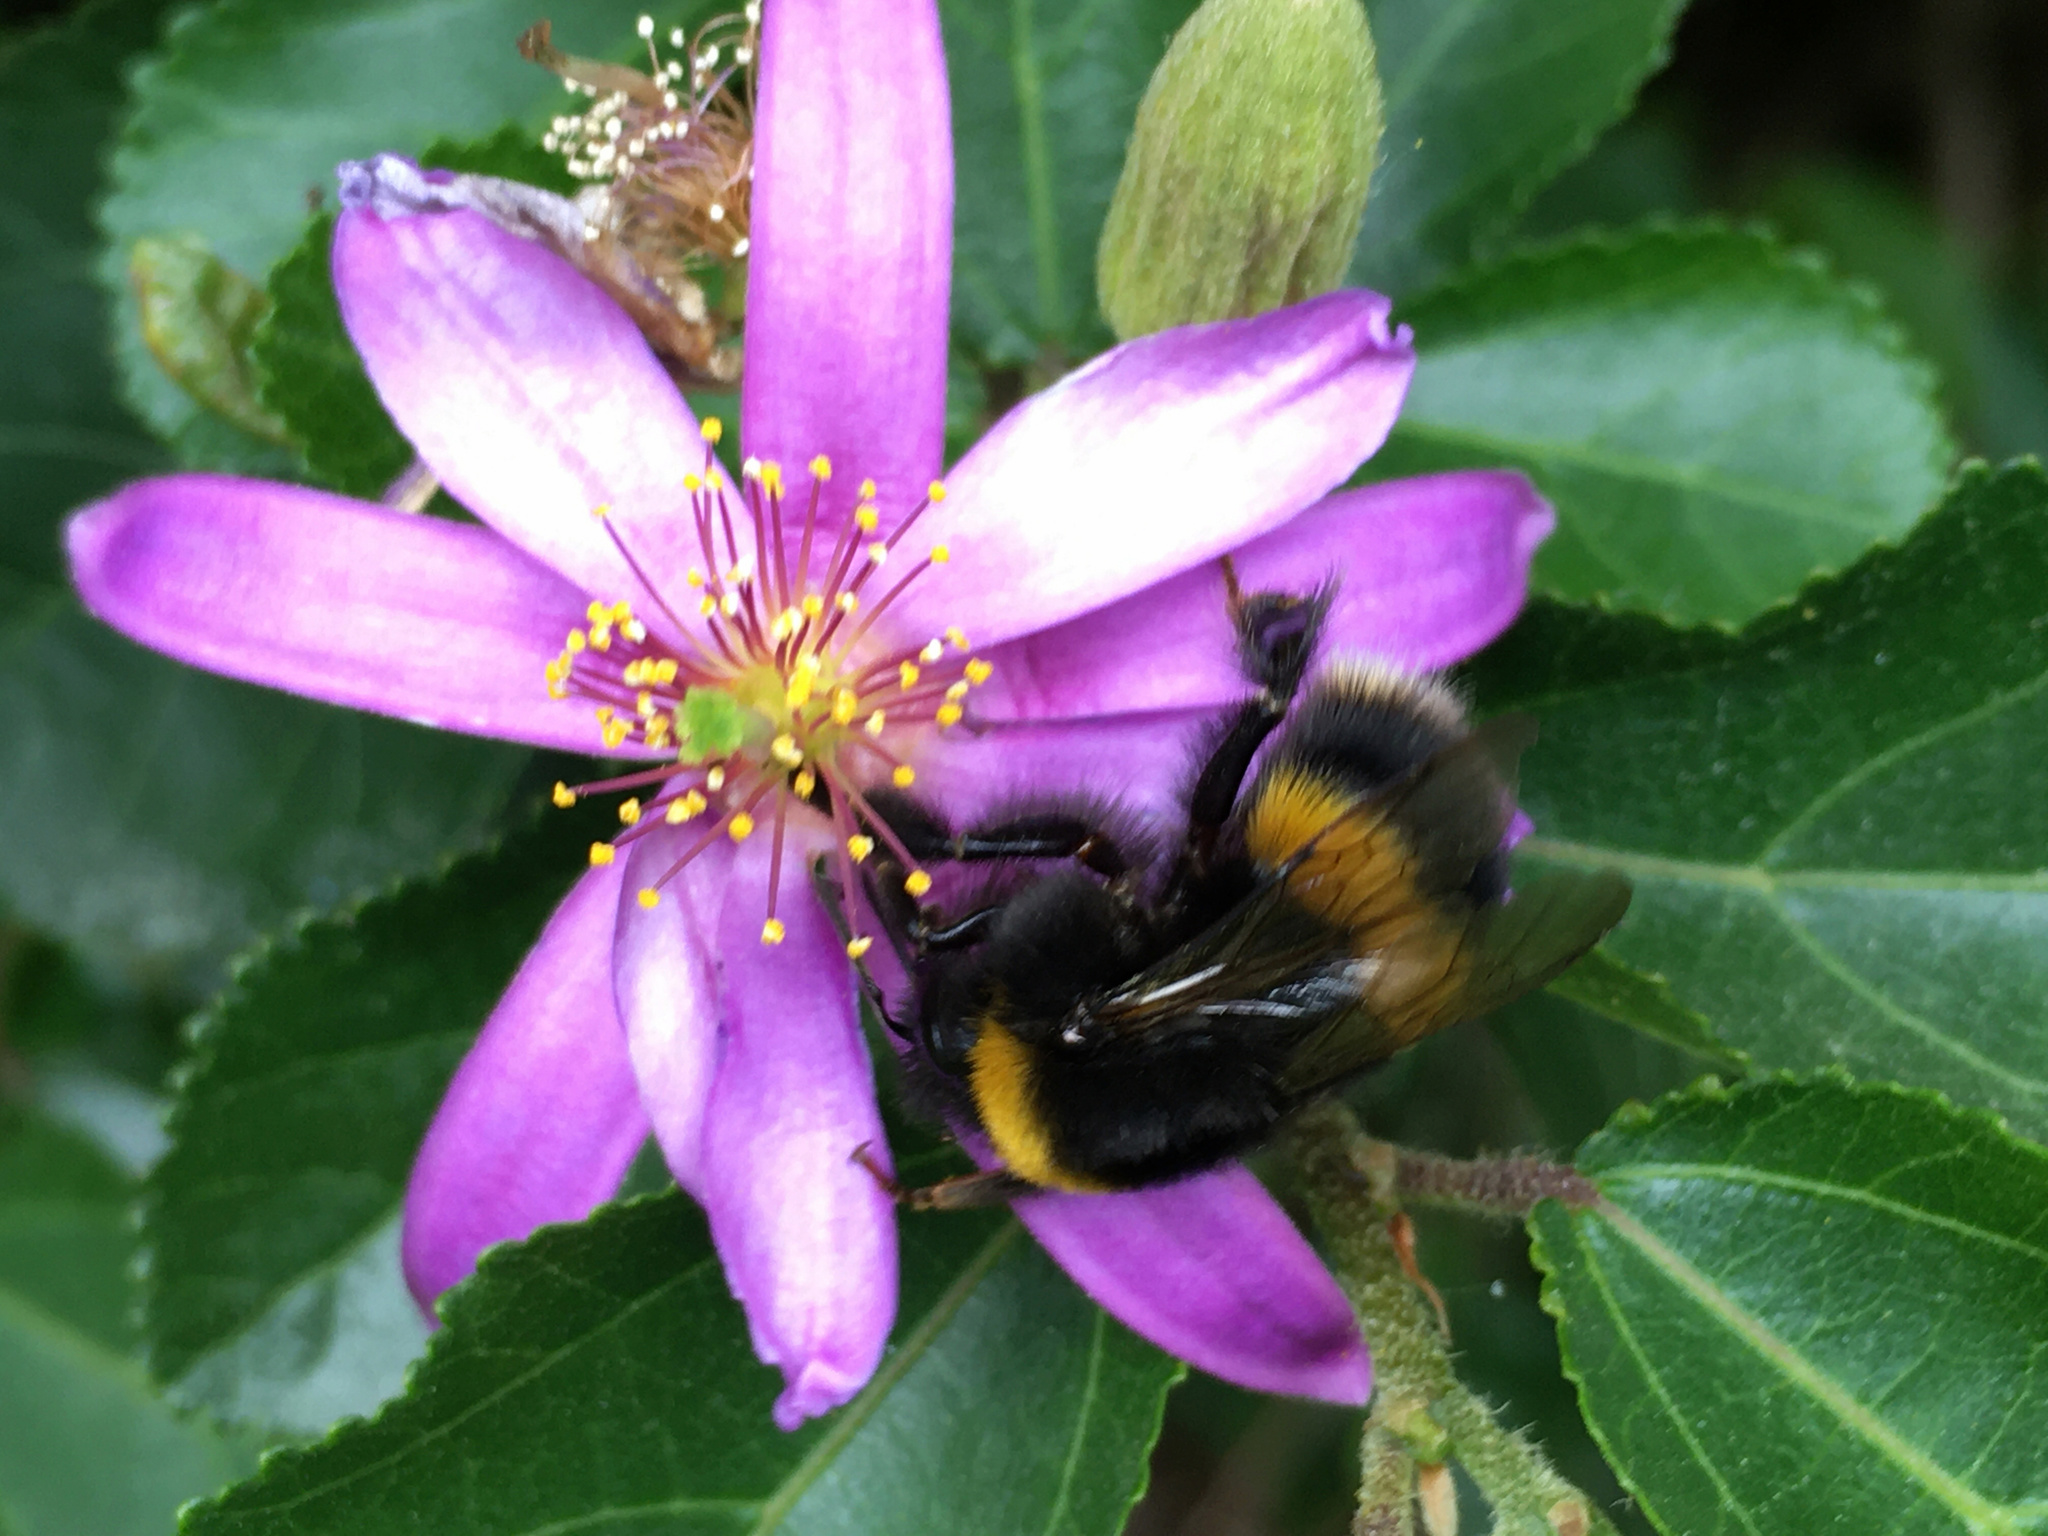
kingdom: Animalia
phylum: Arthropoda
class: Insecta
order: Hymenoptera
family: Apidae
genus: Bombus
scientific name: Bombus terrestris
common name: Buff-tailed bumblebee
